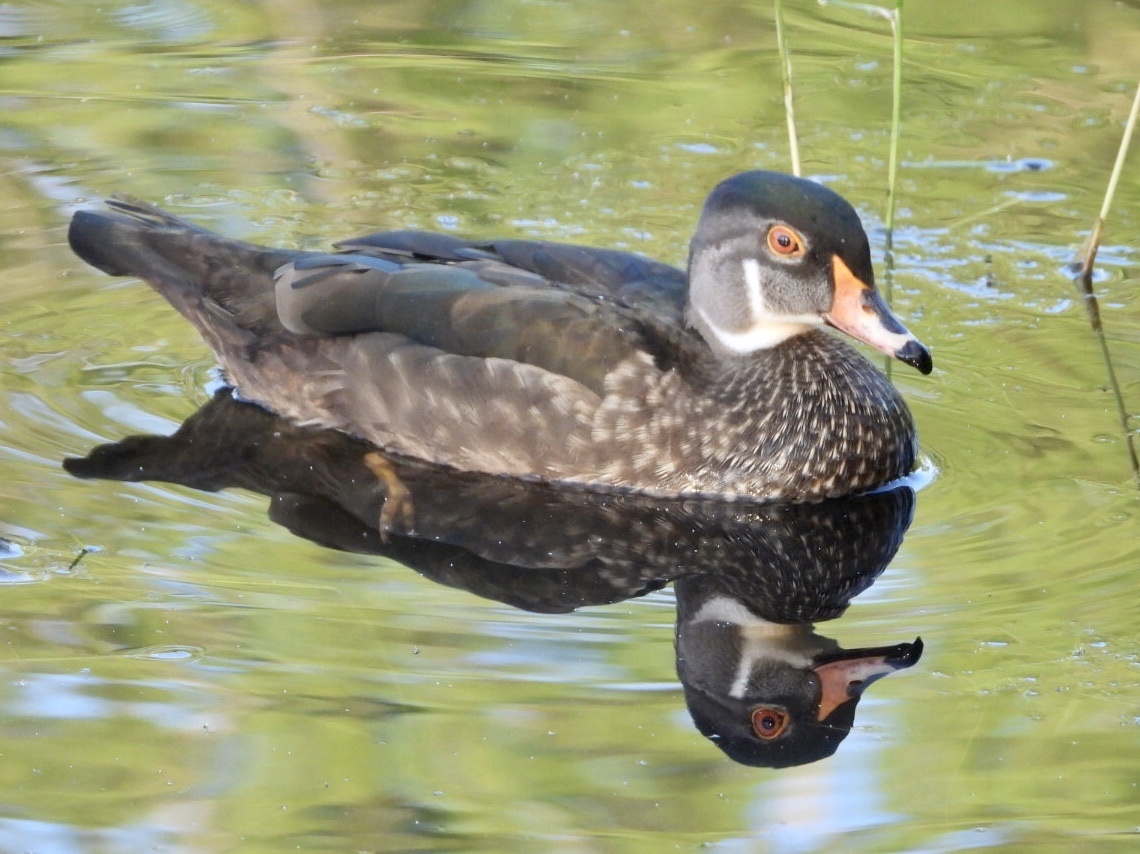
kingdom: Animalia
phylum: Chordata
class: Aves
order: Anseriformes
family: Anatidae
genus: Aix
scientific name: Aix sponsa
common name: Wood duck
